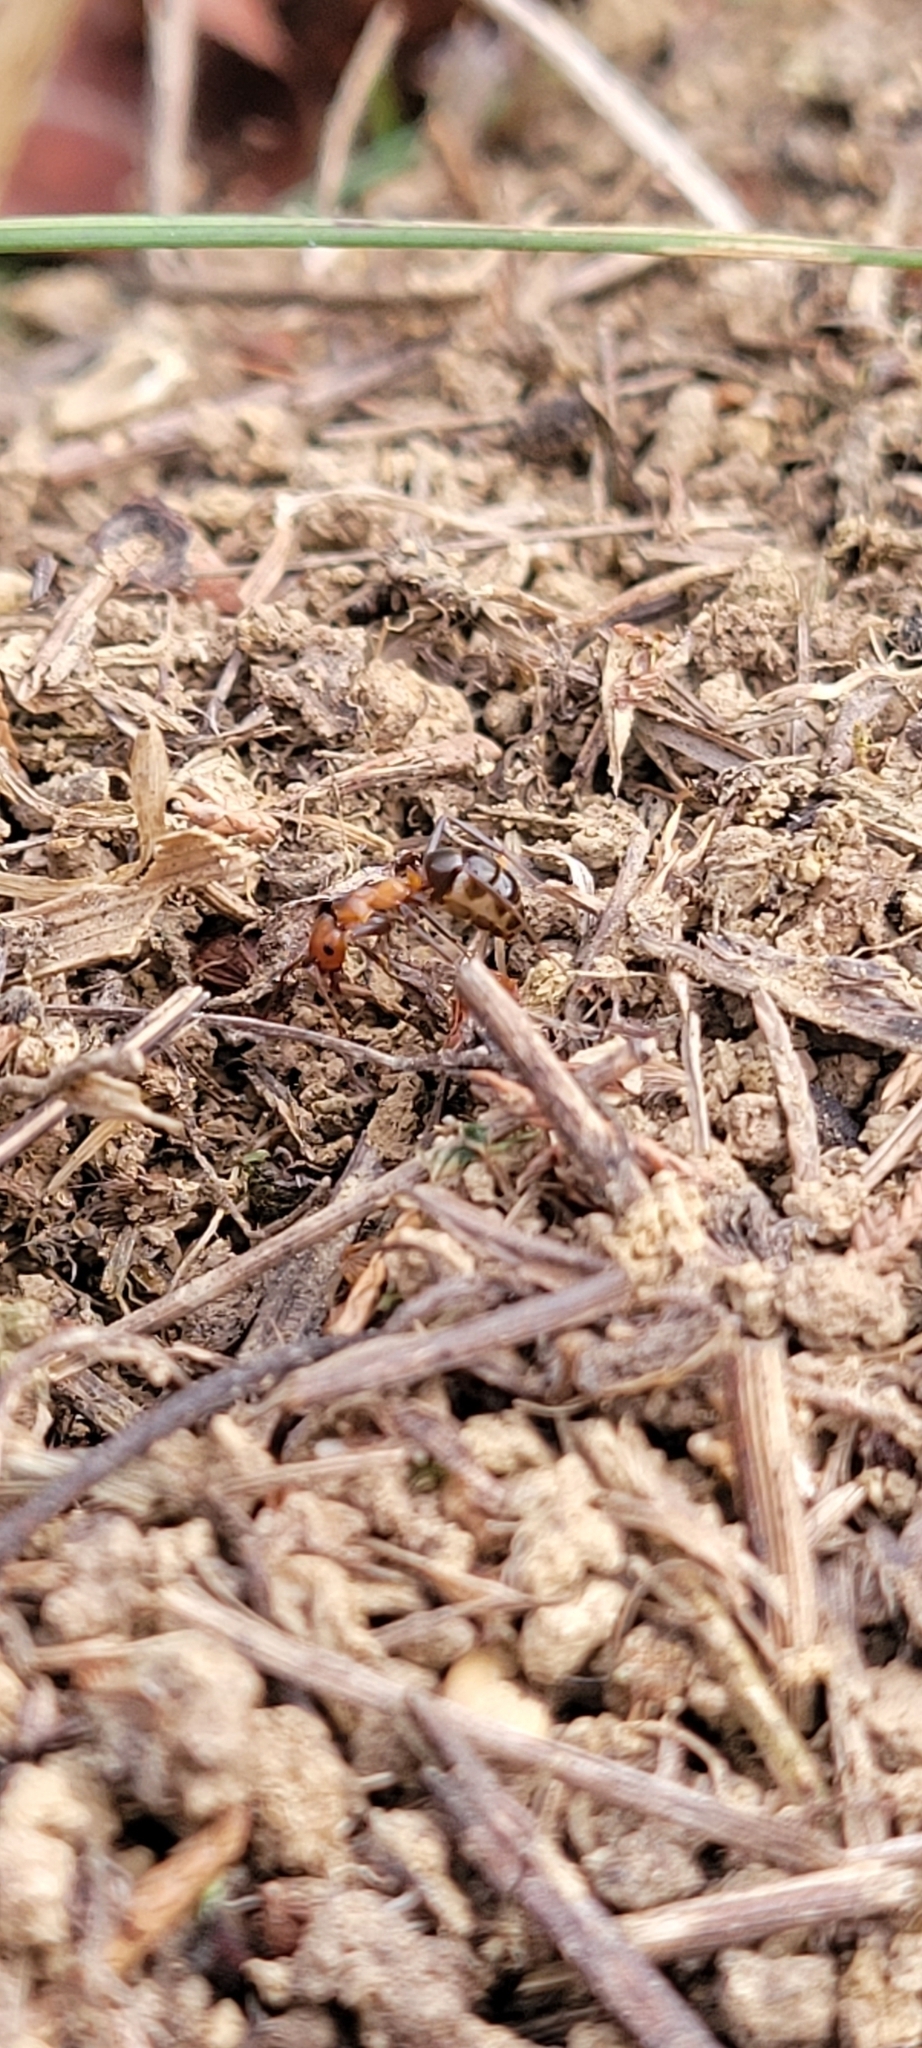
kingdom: Animalia
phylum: Arthropoda
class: Insecta
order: Hymenoptera
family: Formicidae
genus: Formica
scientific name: Formica exsectoides
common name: Allegheny mound ant
